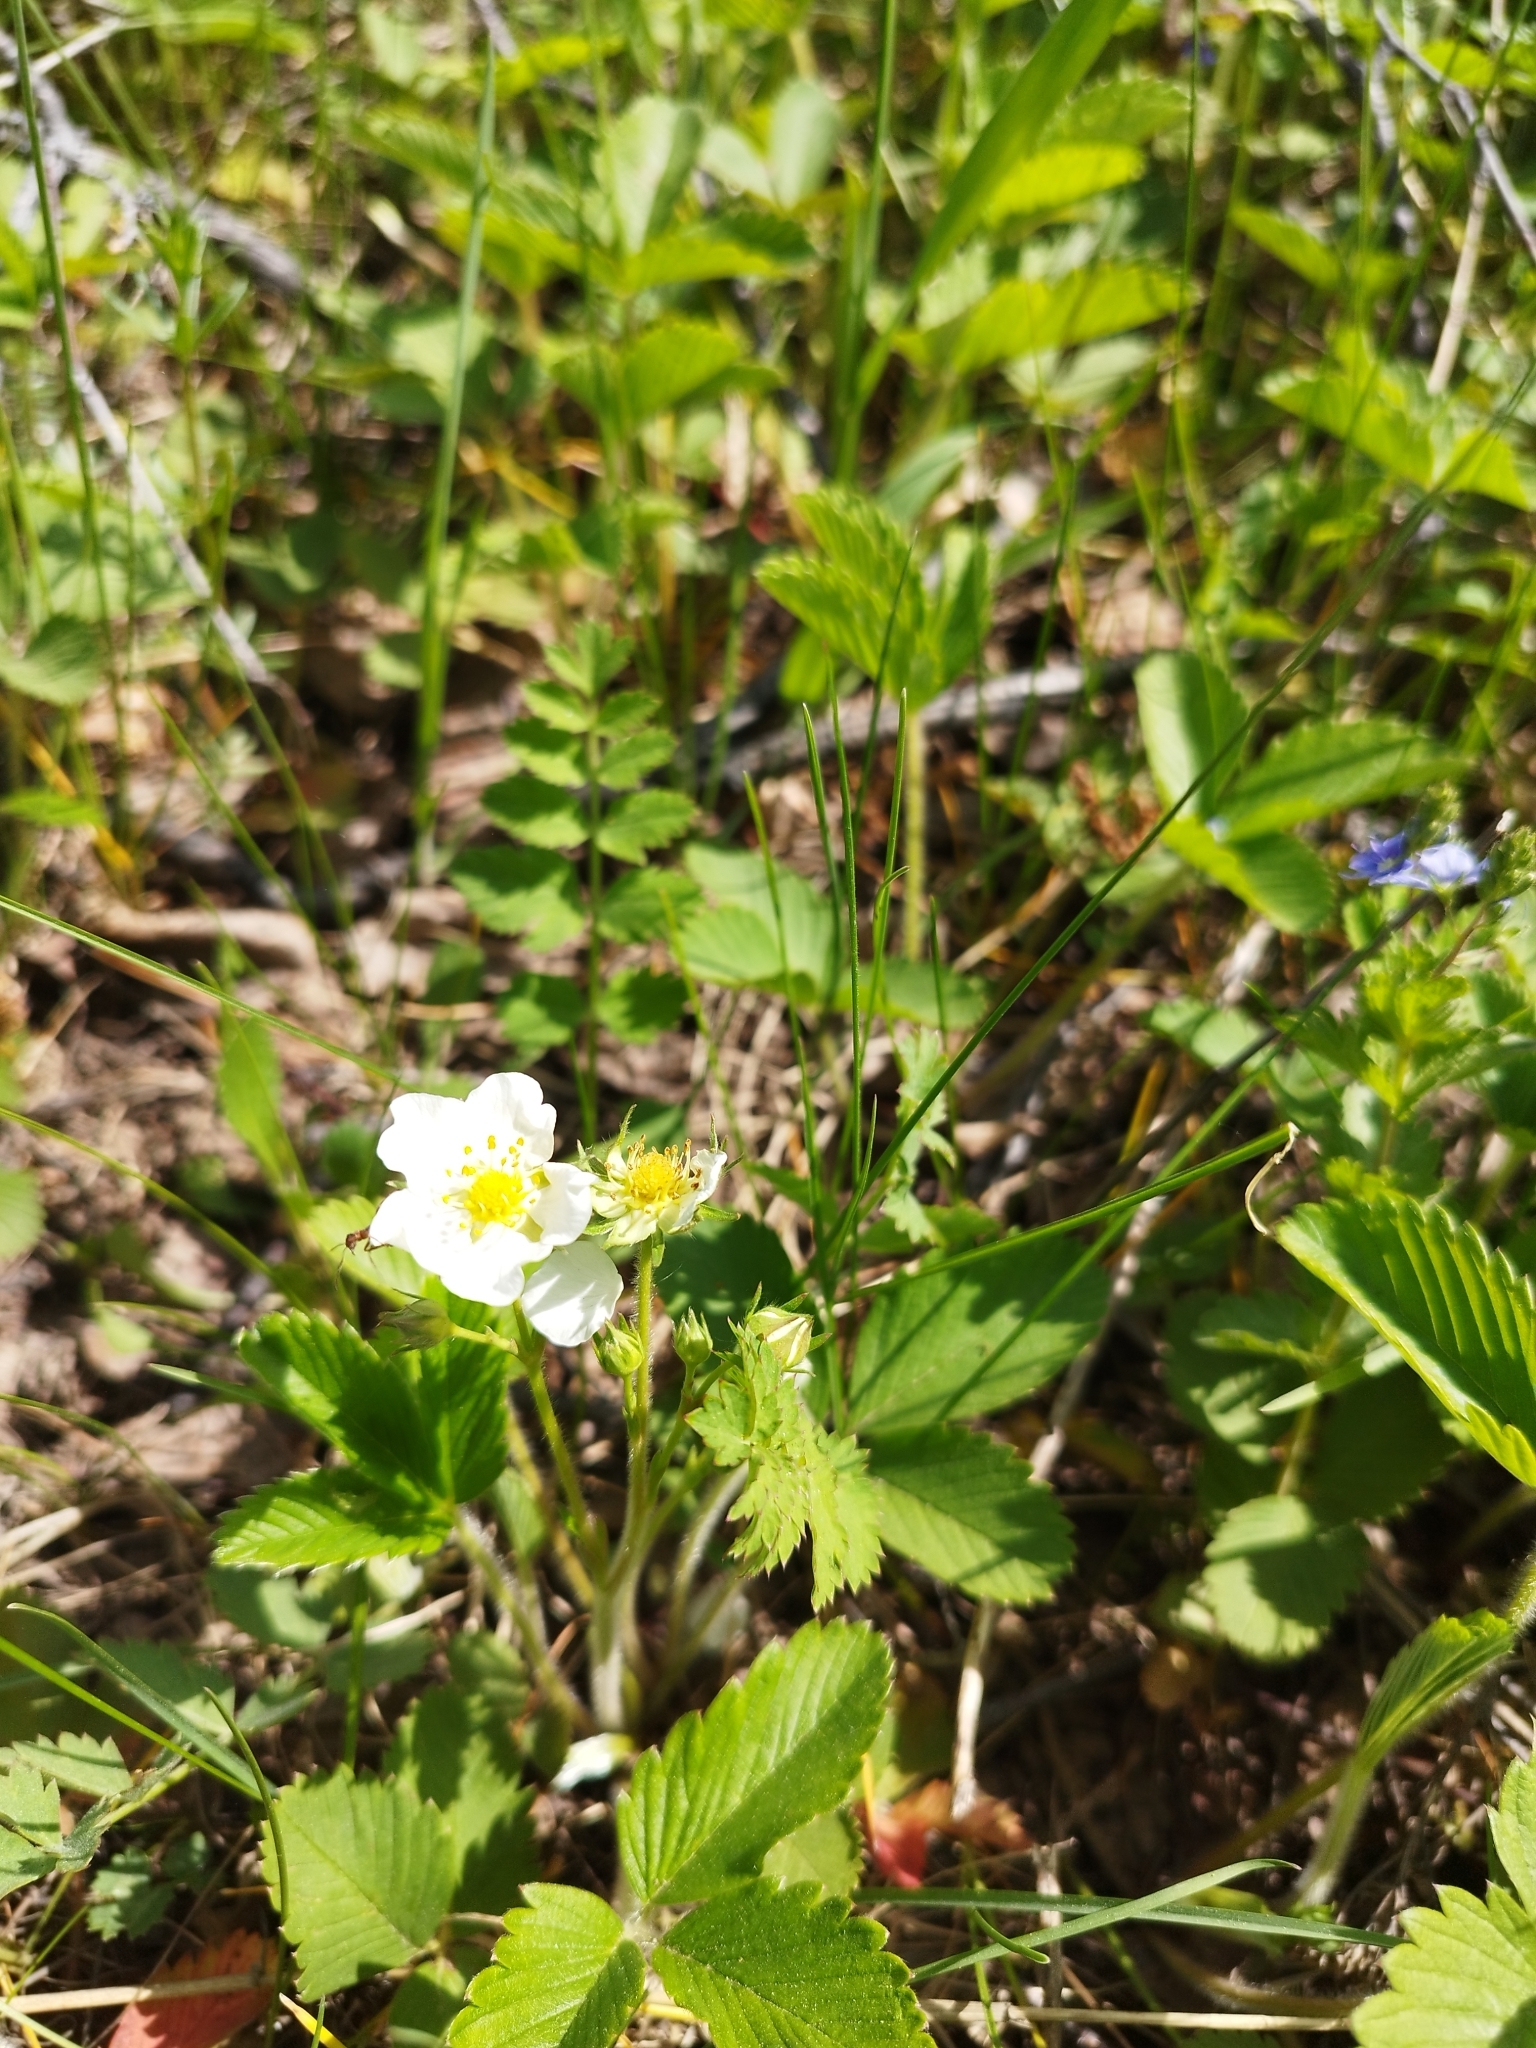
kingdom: Plantae
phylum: Tracheophyta
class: Magnoliopsida
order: Rosales
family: Rosaceae
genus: Fragaria
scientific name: Fragaria viridis
